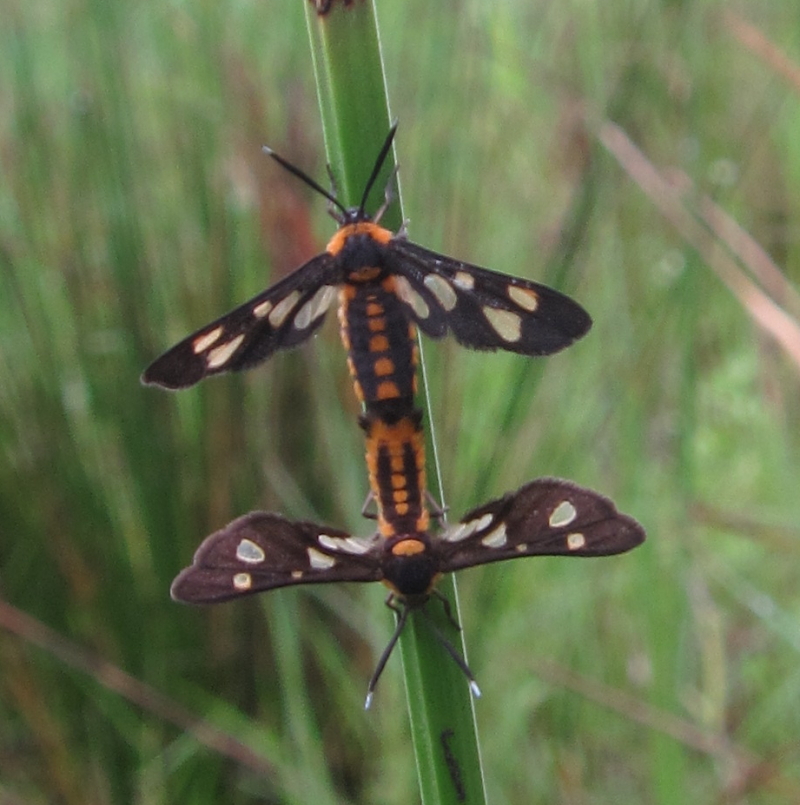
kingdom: Animalia
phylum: Arthropoda
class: Insecta
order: Lepidoptera
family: Erebidae
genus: Trichaeta
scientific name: Trichaeta pterophorina
